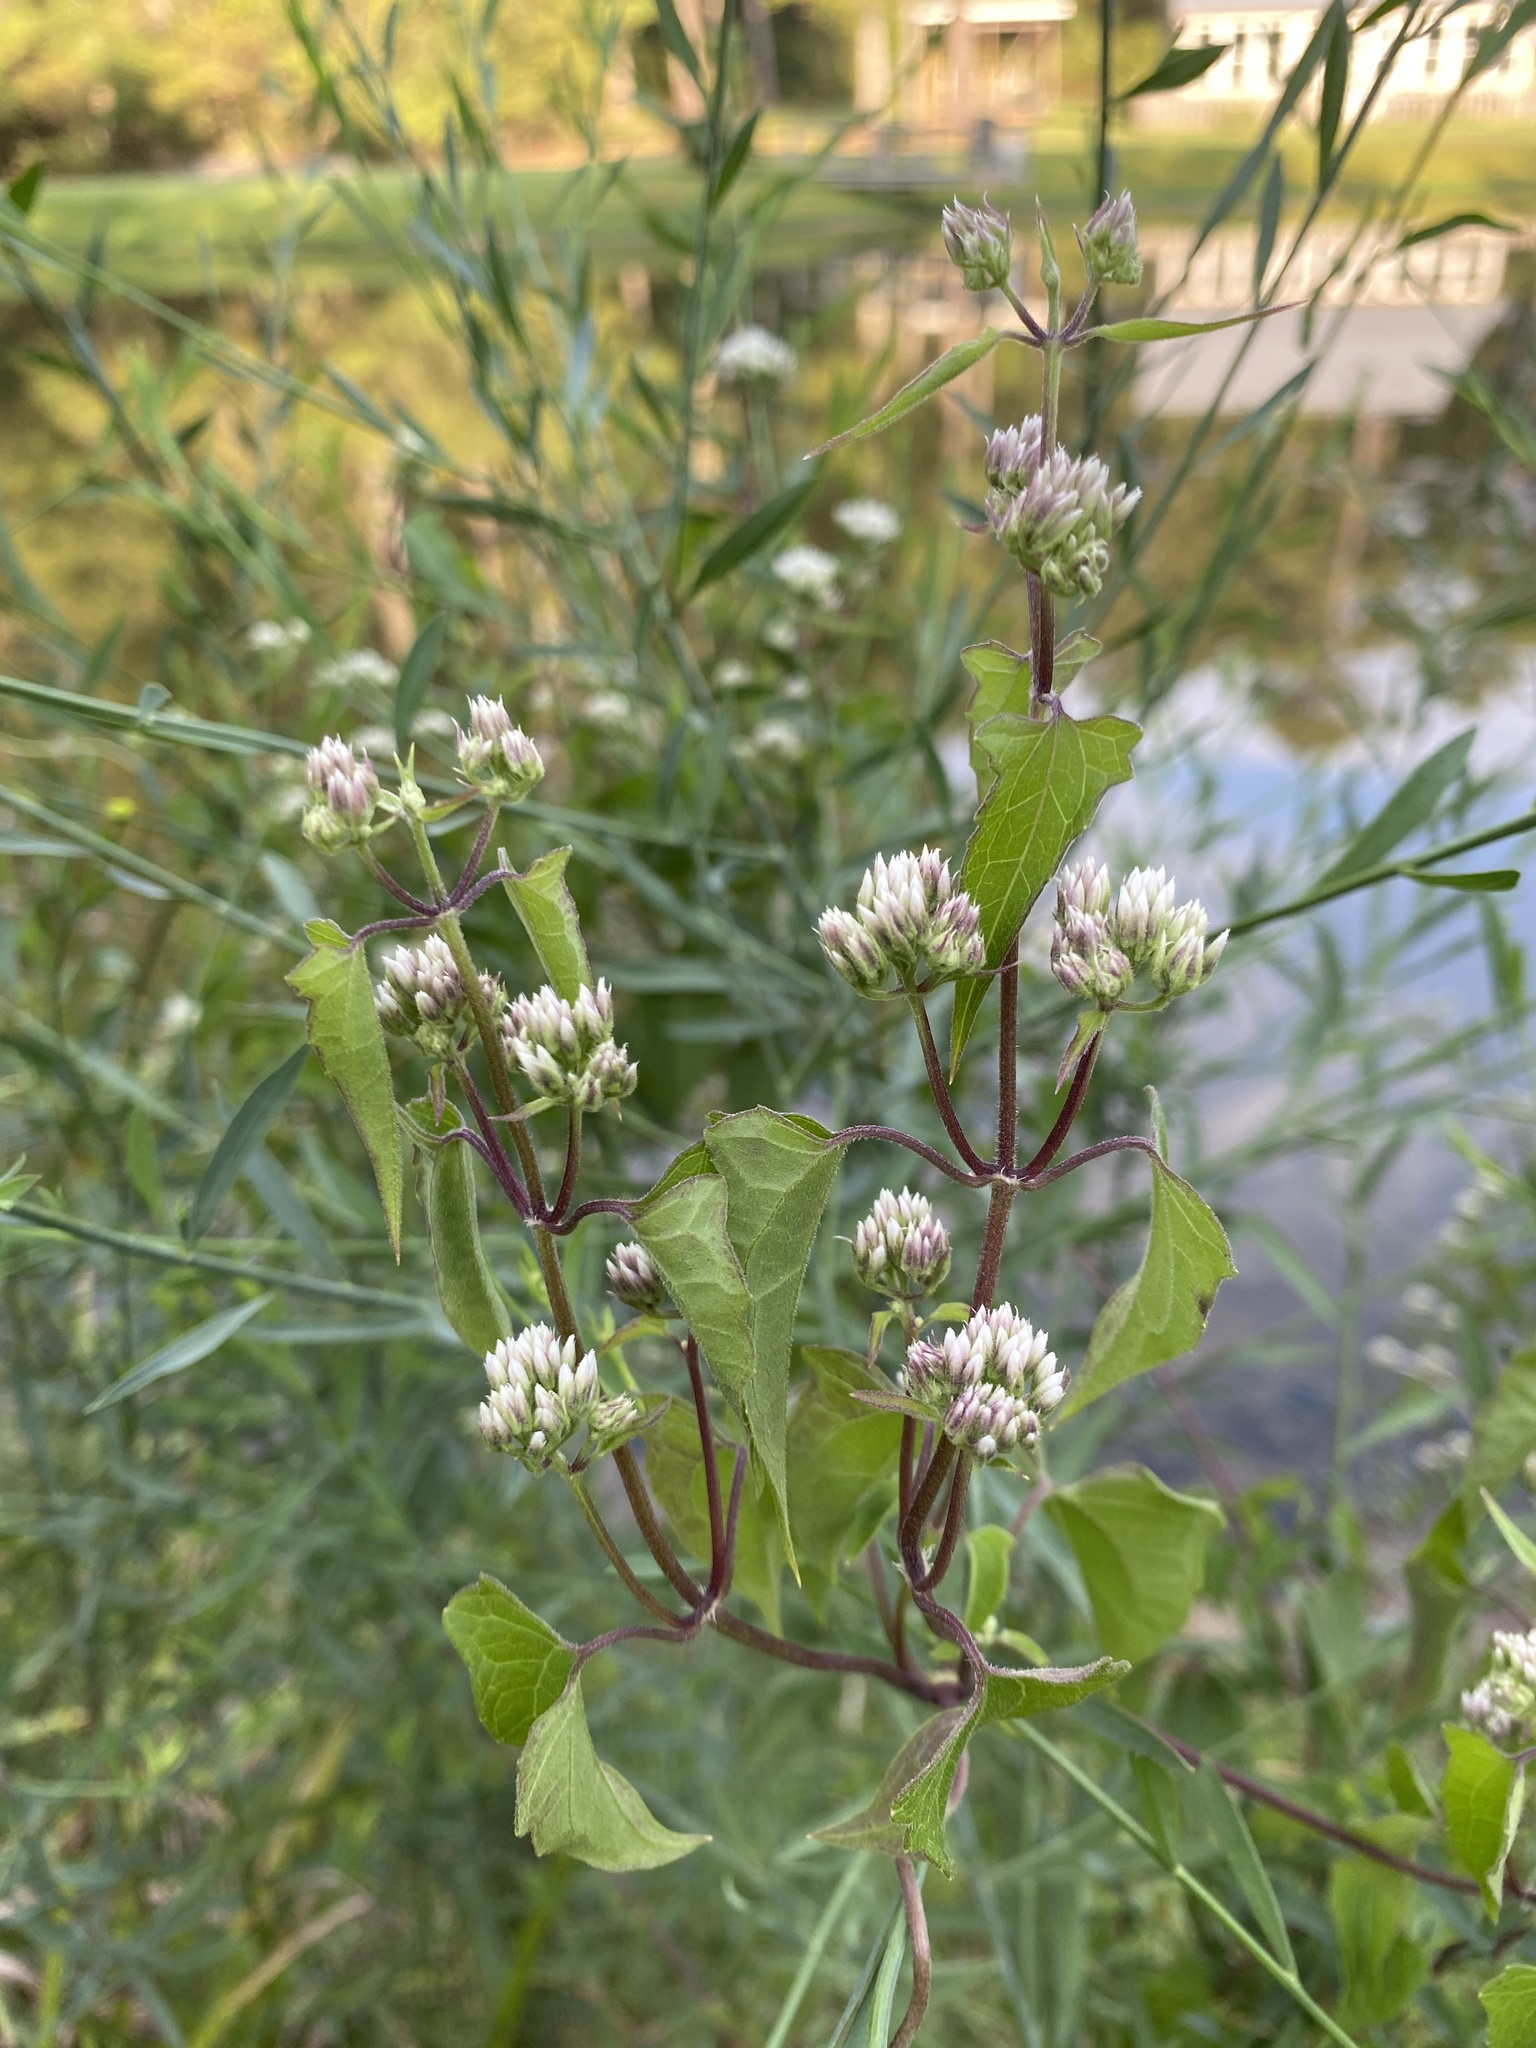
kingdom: Plantae
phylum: Tracheophyta
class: Magnoliopsida
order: Asterales
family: Asteraceae
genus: Mikania
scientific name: Mikania scandens
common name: Climbing hempvine
